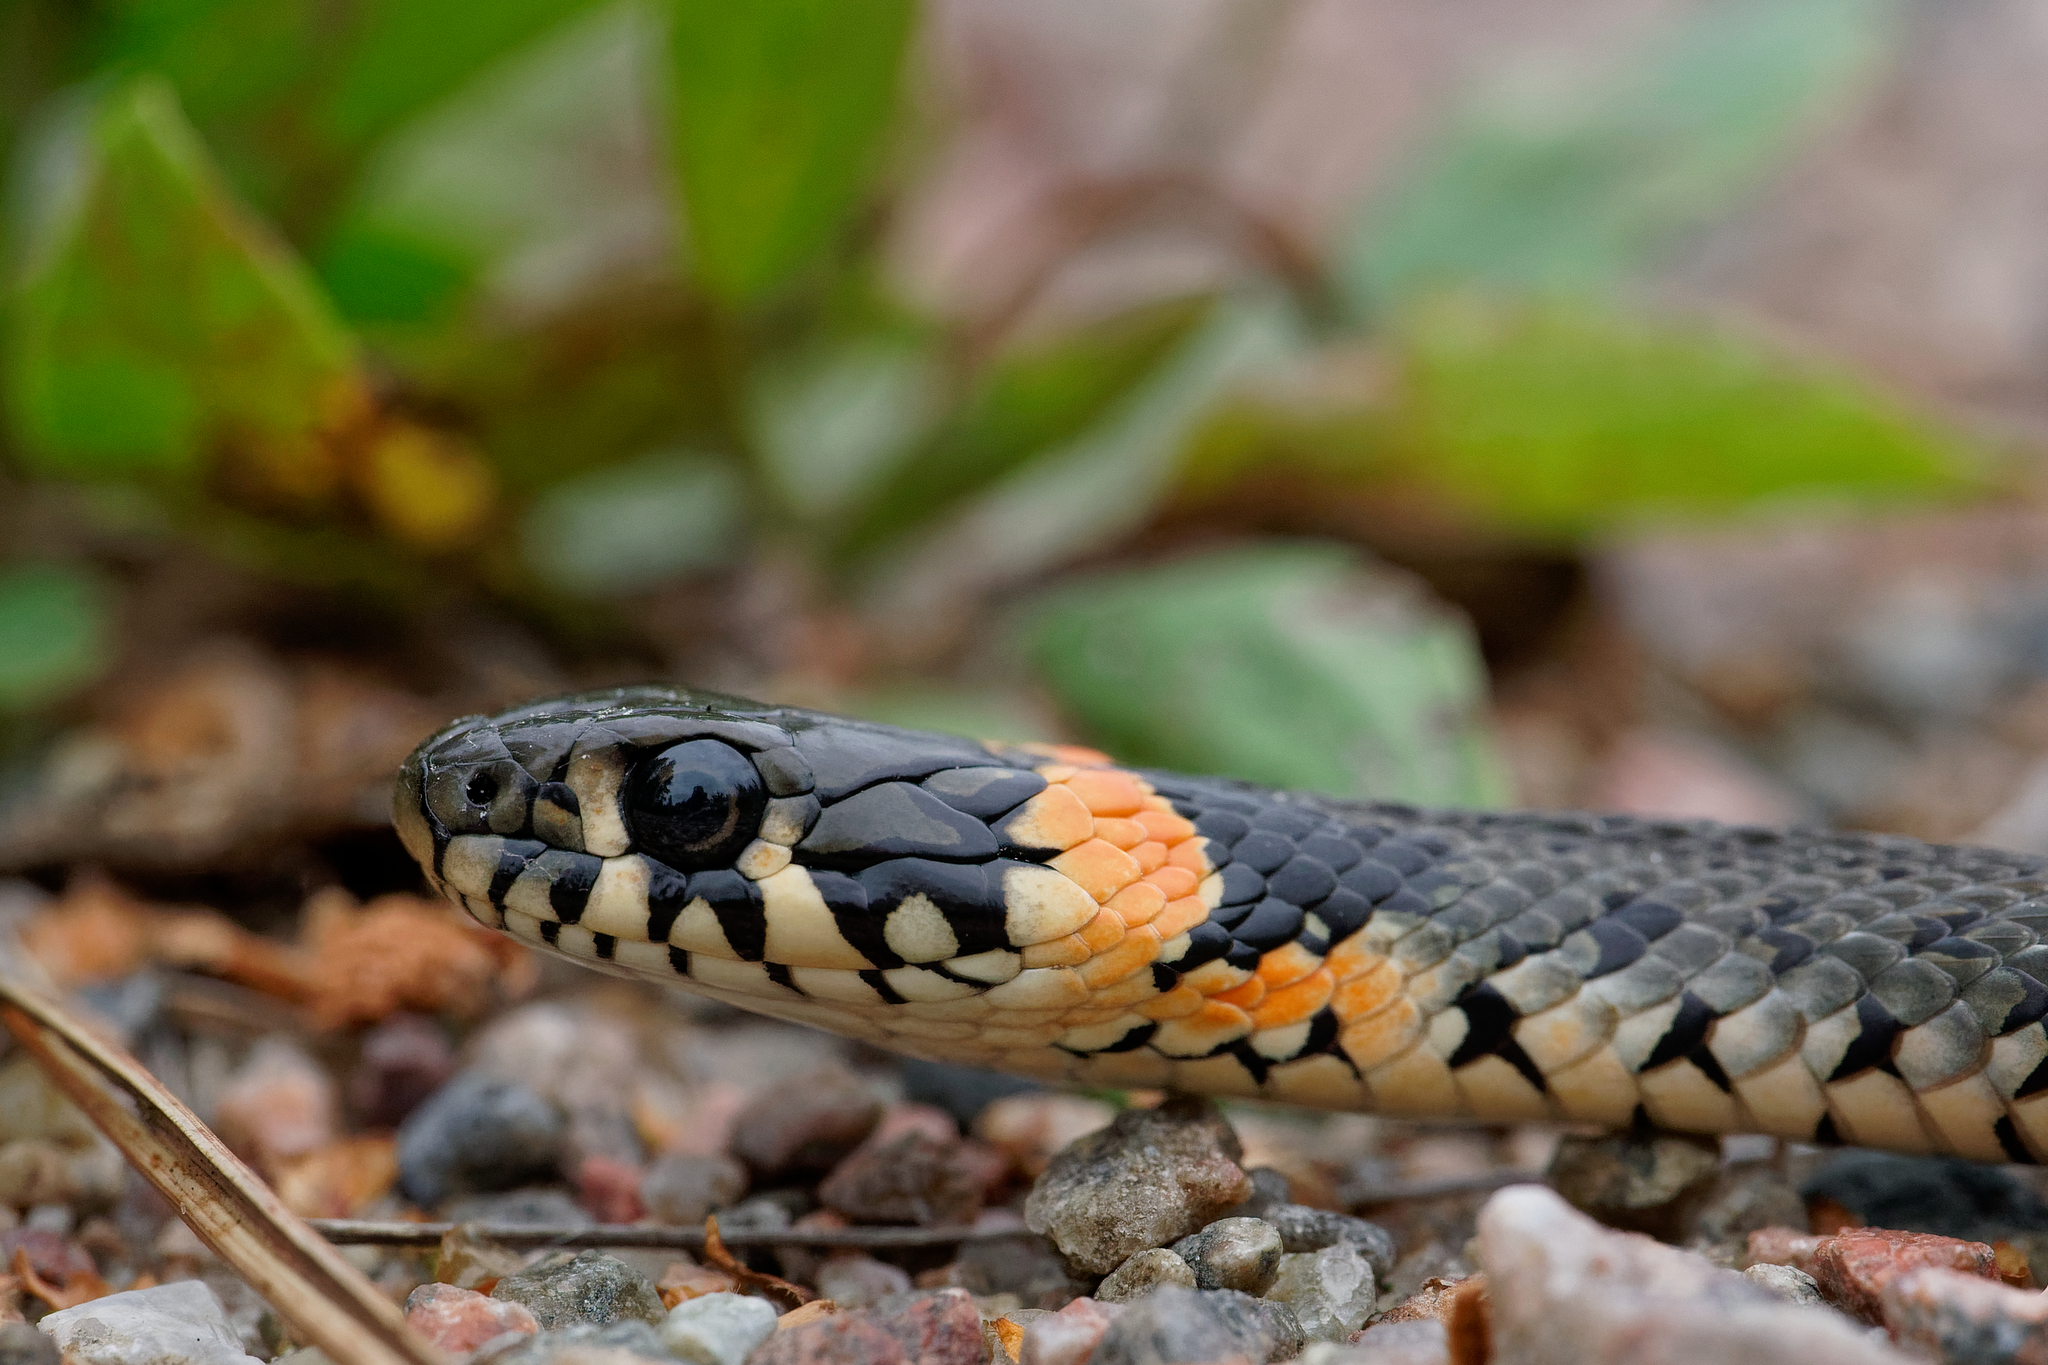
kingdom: Animalia
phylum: Chordata
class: Squamata
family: Colubridae
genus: Natrix
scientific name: Natrix natrix
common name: Grass snake
